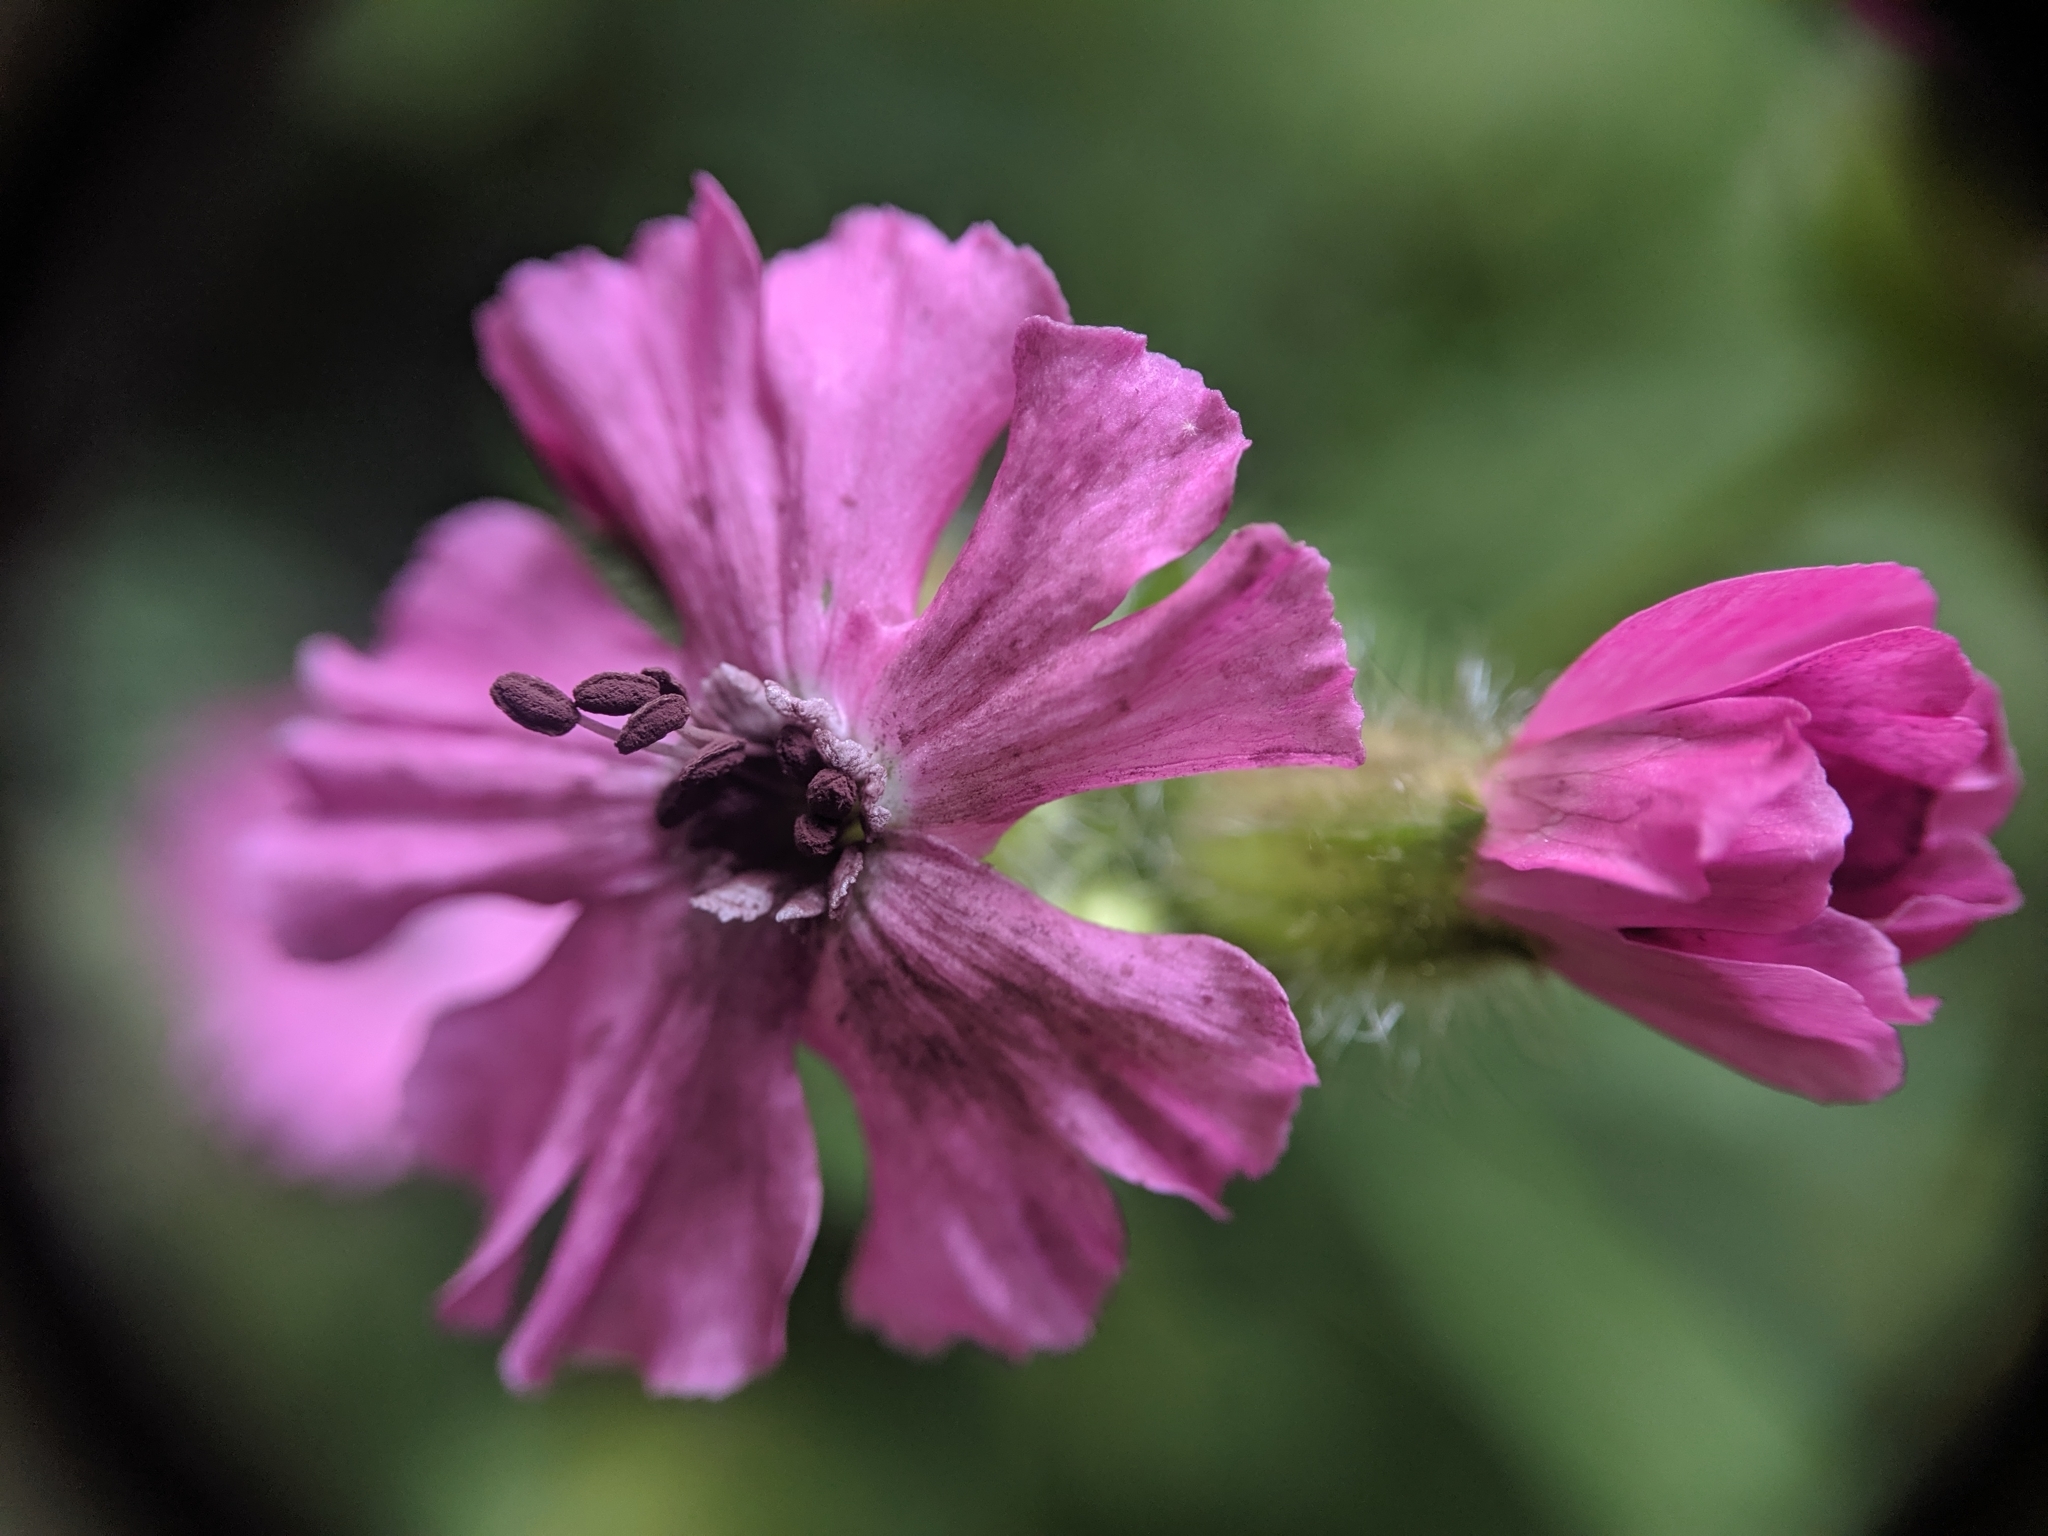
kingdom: Fungi
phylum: Basidiomycota
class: Microbotryomycetes
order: Microbotryales
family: Microbotryaceae
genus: Microbotryum
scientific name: Microbotryum silenes-dioicae
